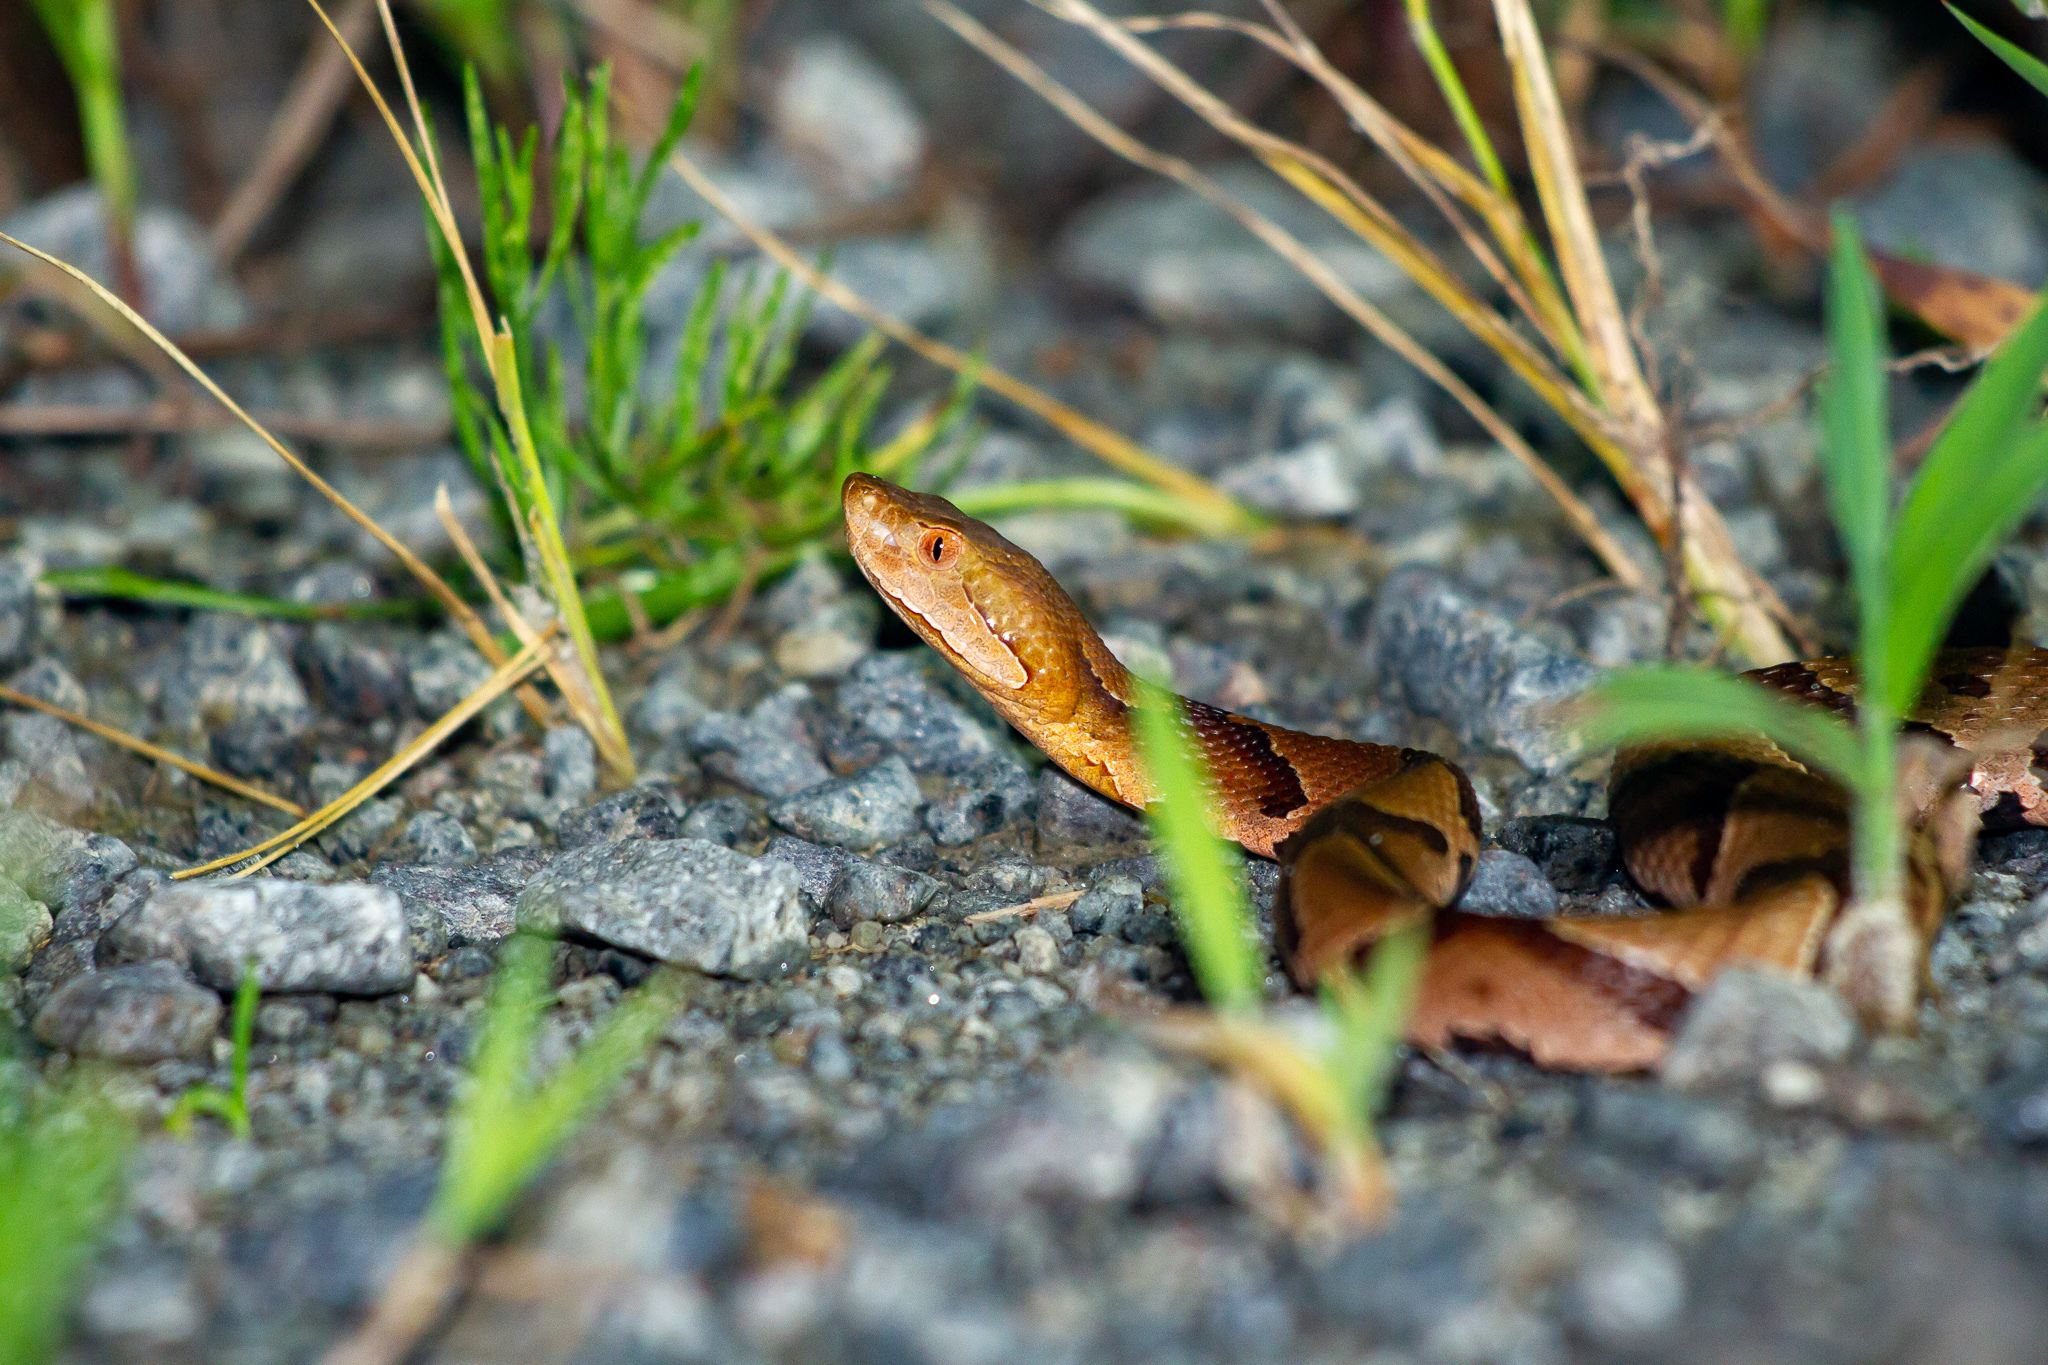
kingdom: Animalia
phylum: Chordata
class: Squamata
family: Viperidae
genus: Agkistrodon
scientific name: Agkistrodon contortrix
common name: Northern copperhead
